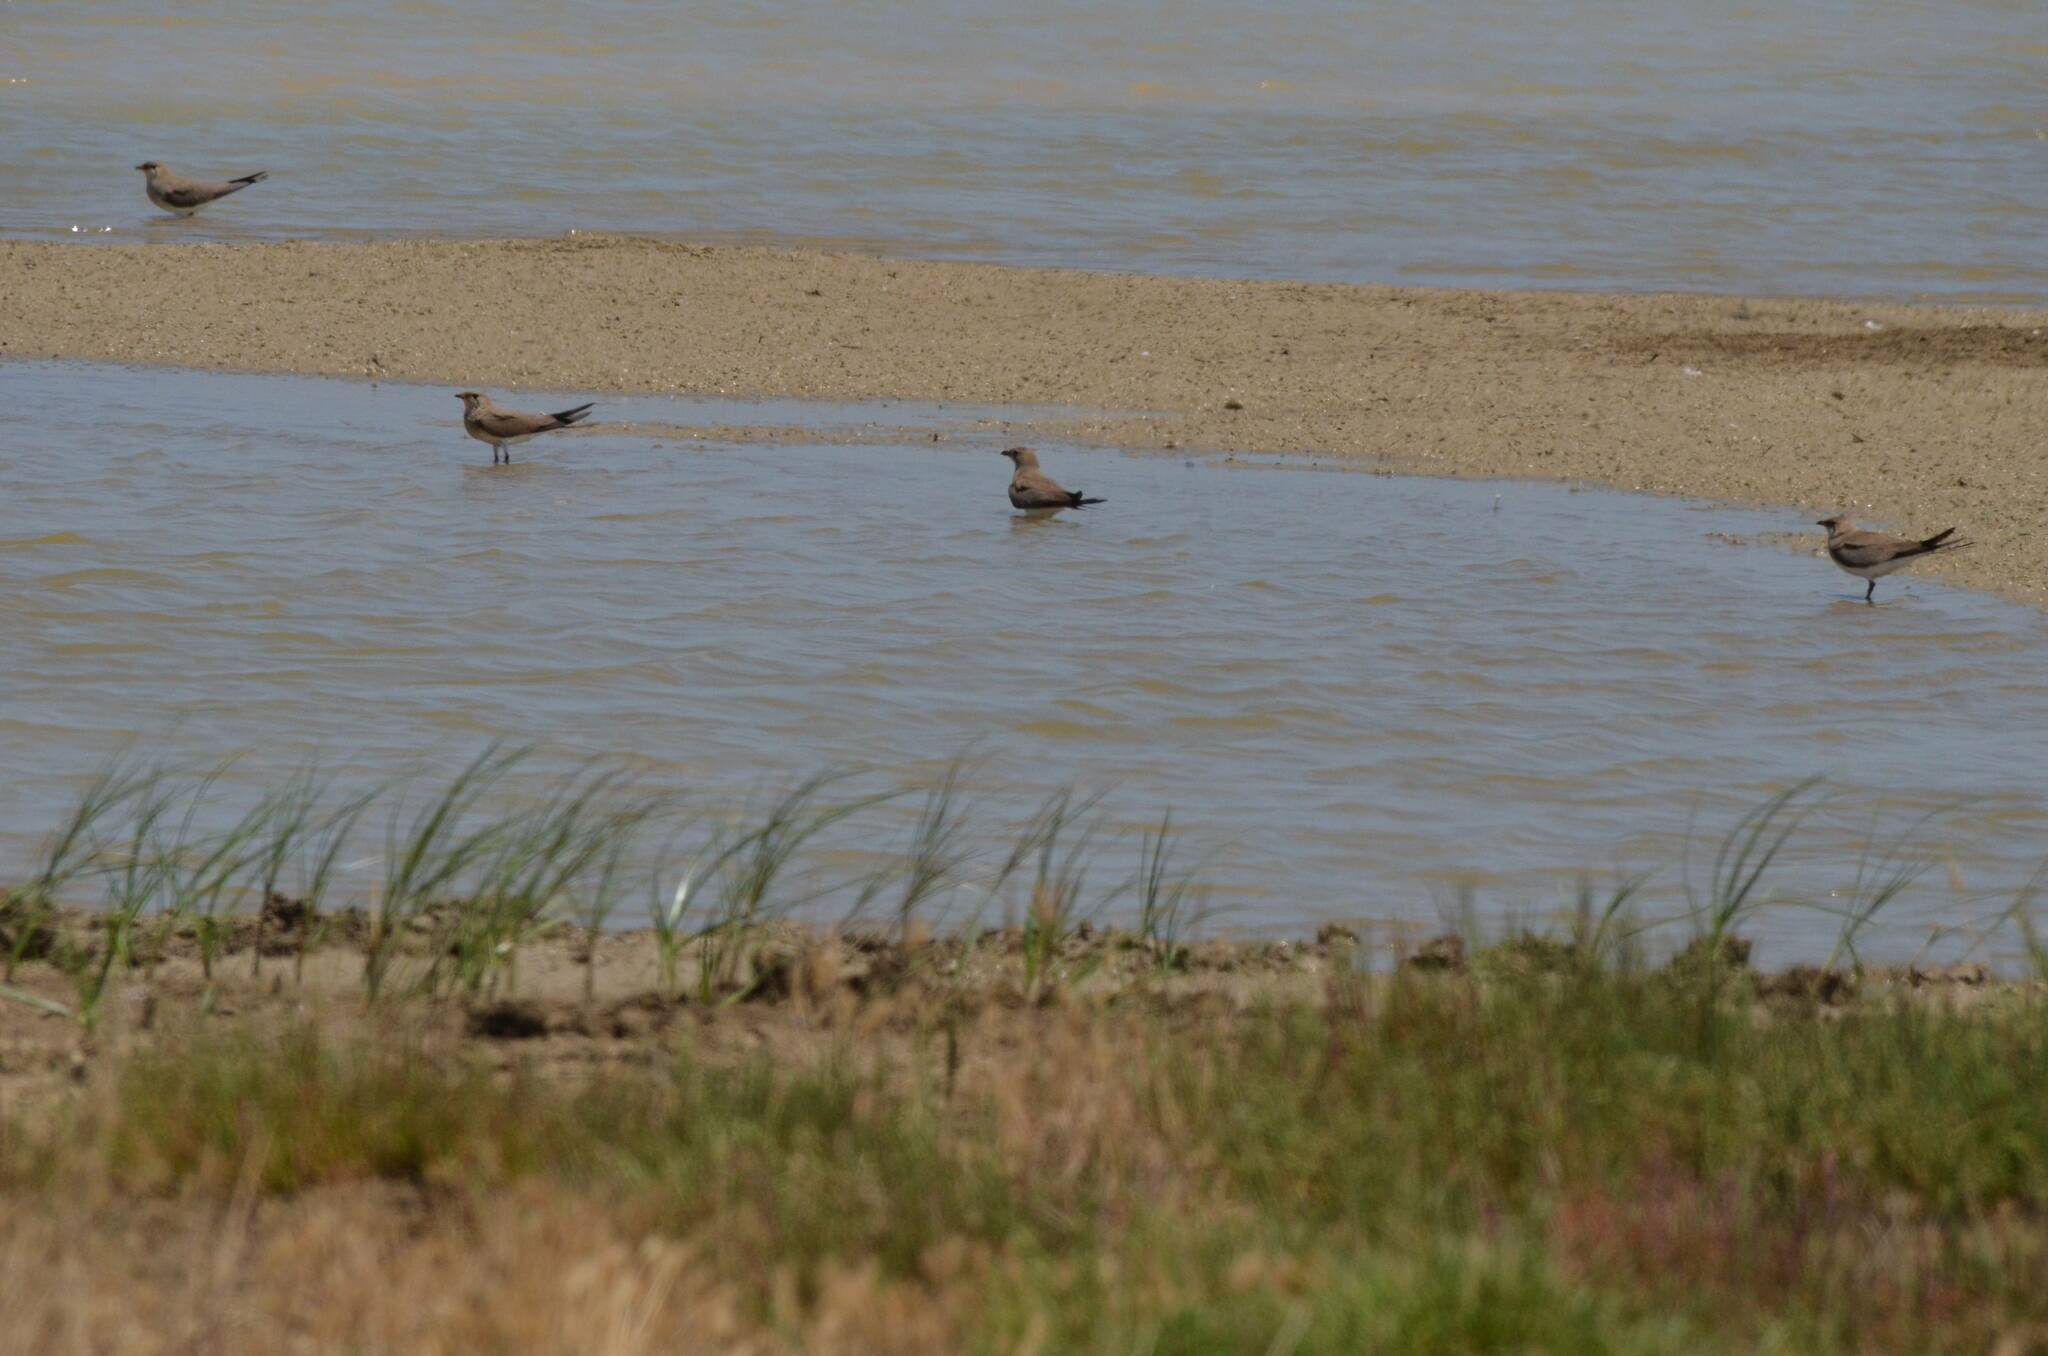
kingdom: Animalia
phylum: Chordata
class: Aves
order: Charadriiformes
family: Glareolidae
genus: Glareola
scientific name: Glareola pratincola
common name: Collared pratincole
